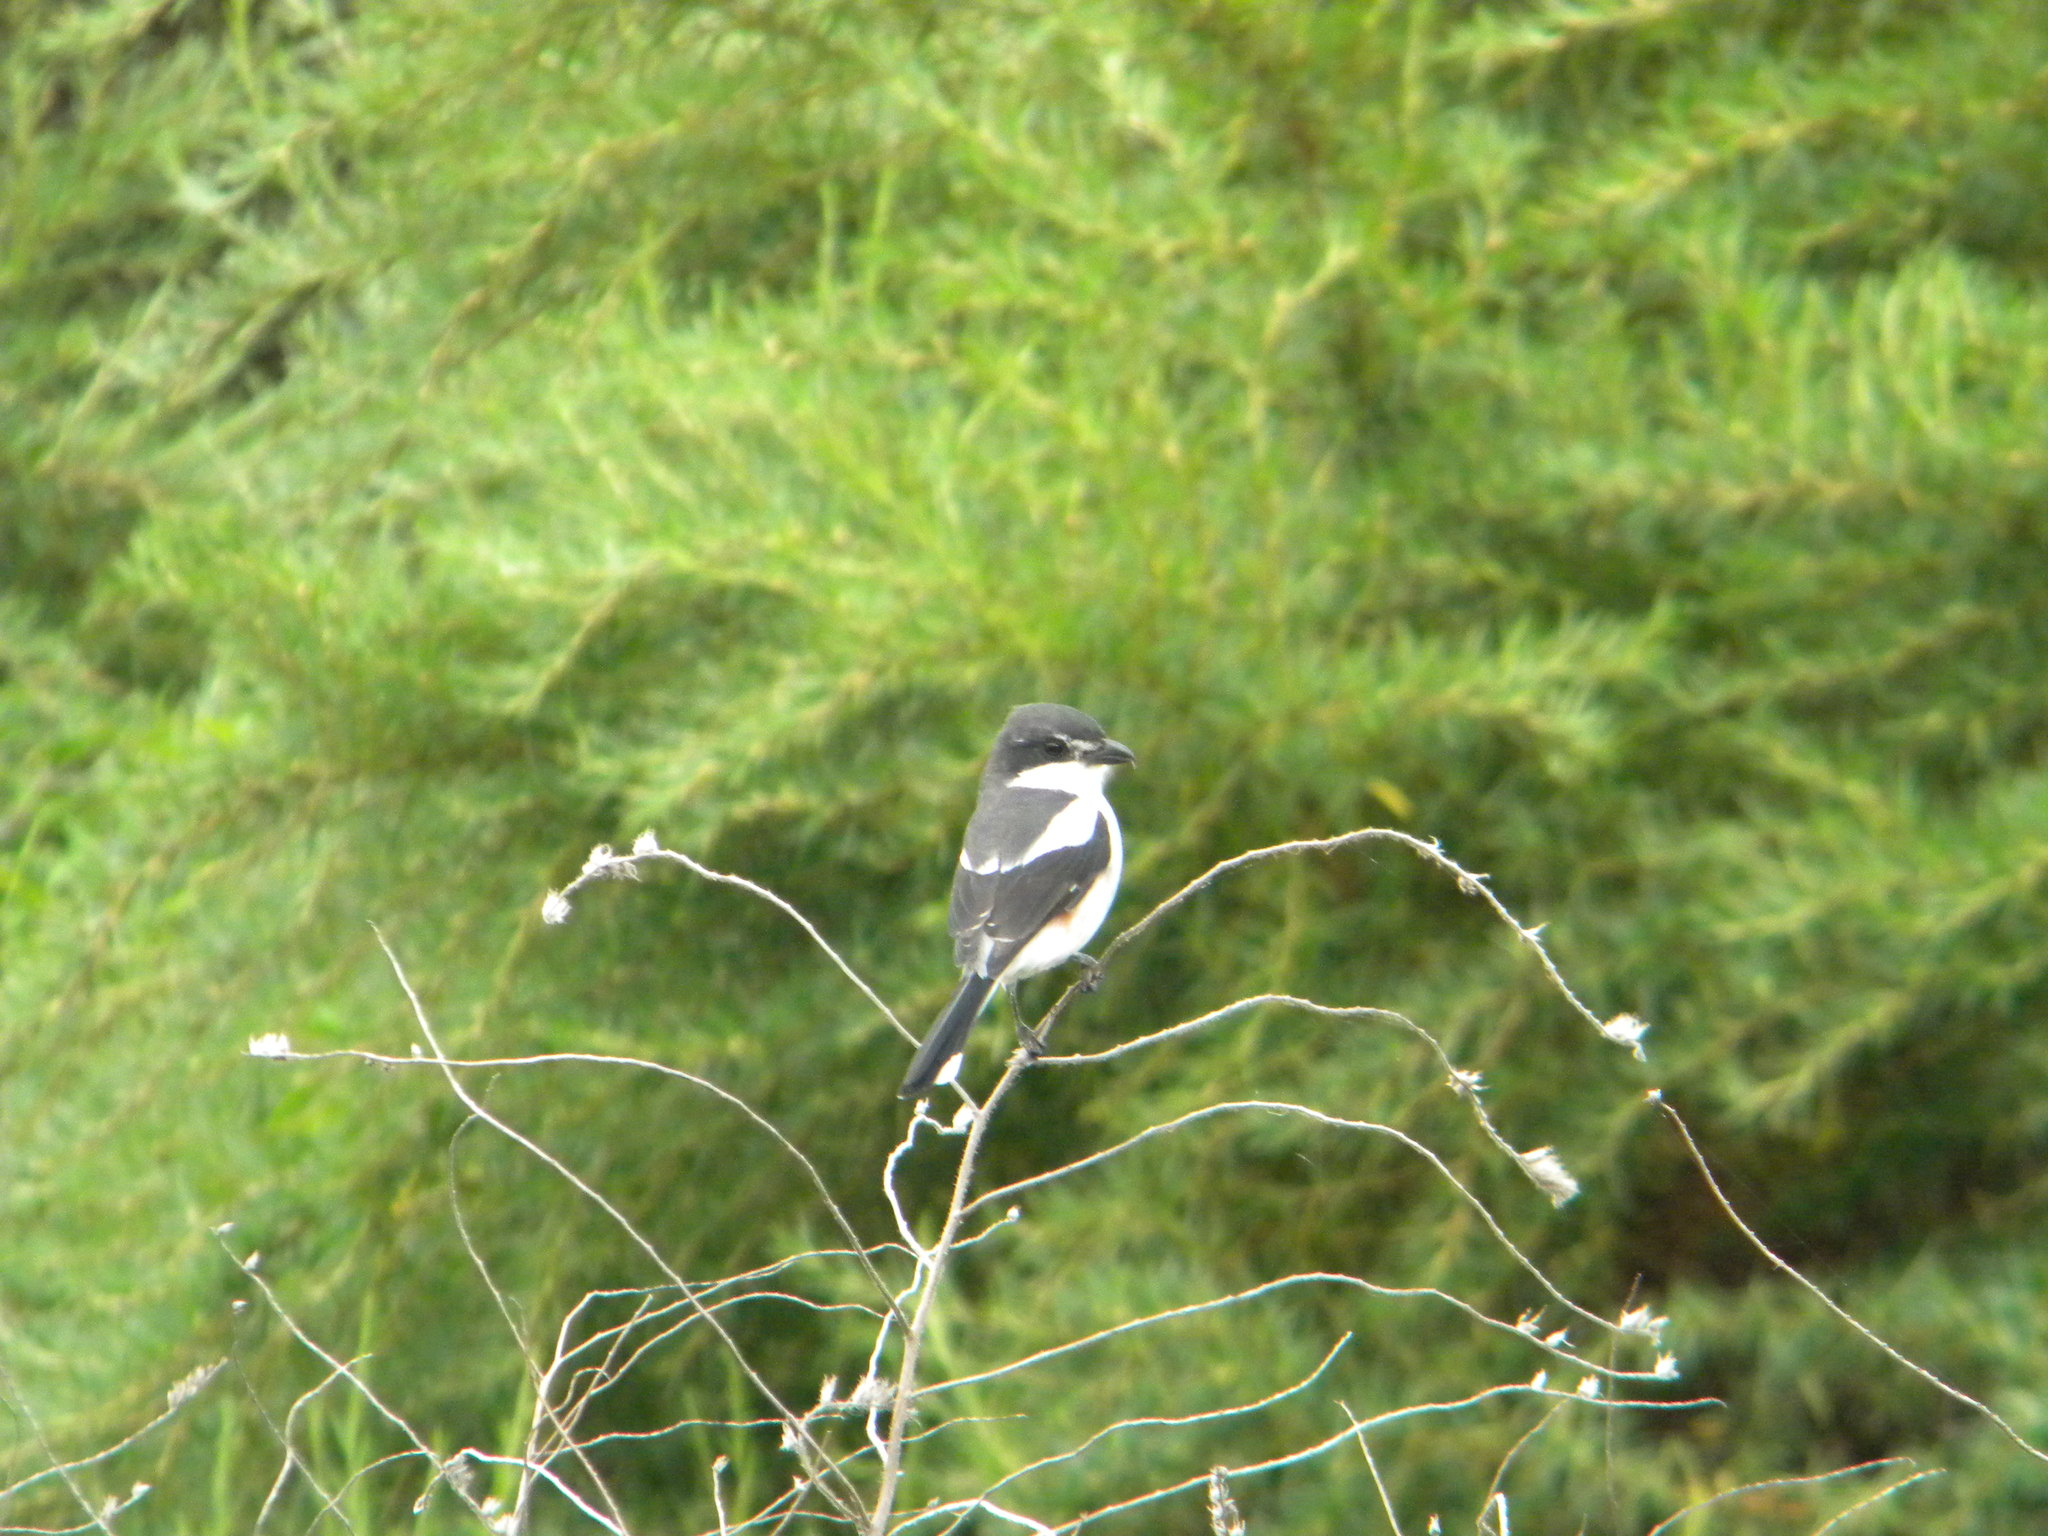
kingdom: Animalia
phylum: Chordata
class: Aves
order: Passeriformes
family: Laniidae
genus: Lanius
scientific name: Lanius collaris
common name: Southern fiscal
